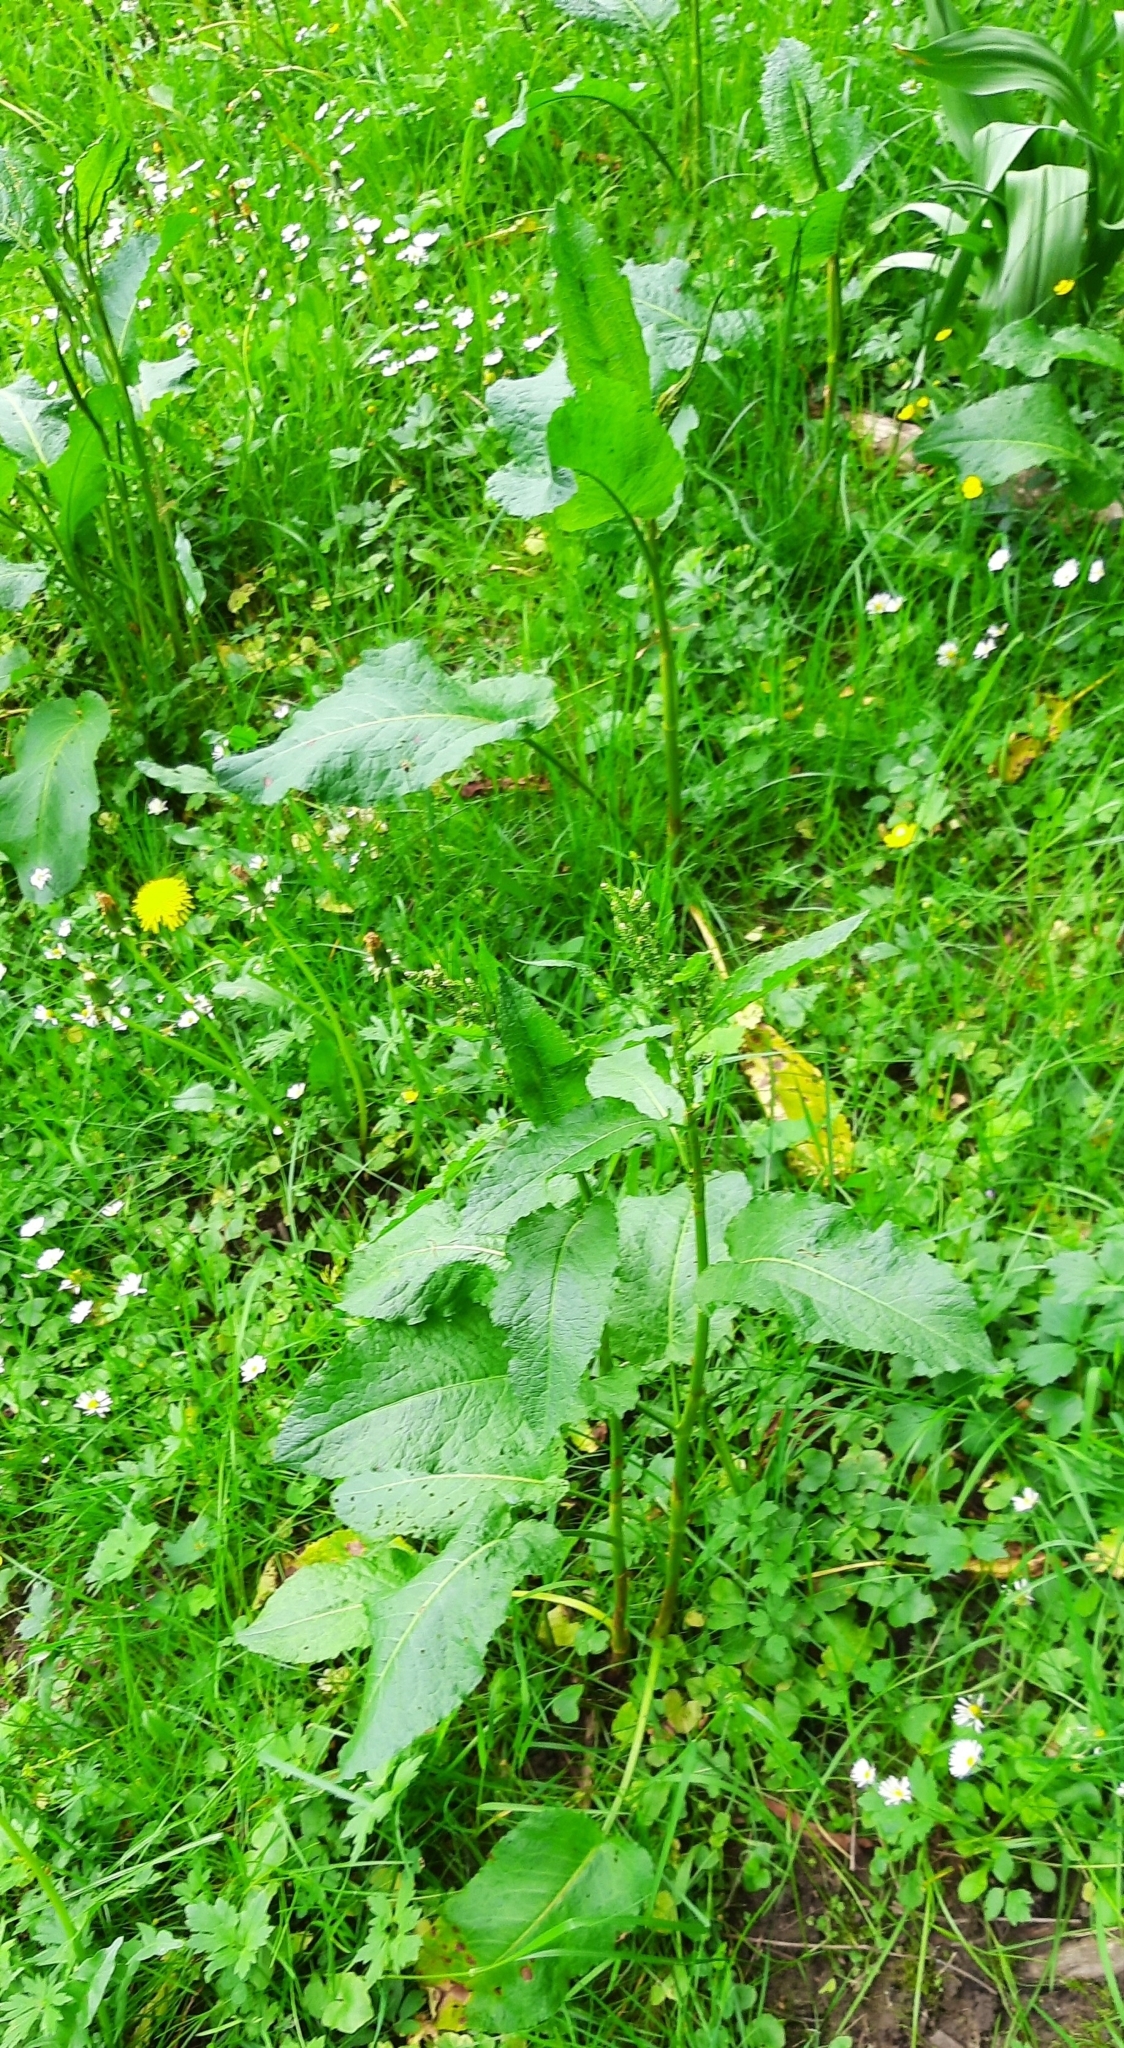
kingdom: Plantae
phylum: Tracheophyta
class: Magnoliopsida
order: Caryophyllales
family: Polygonaceae
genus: Rumex
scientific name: Rumex obtusifolius
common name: Bitter dock
